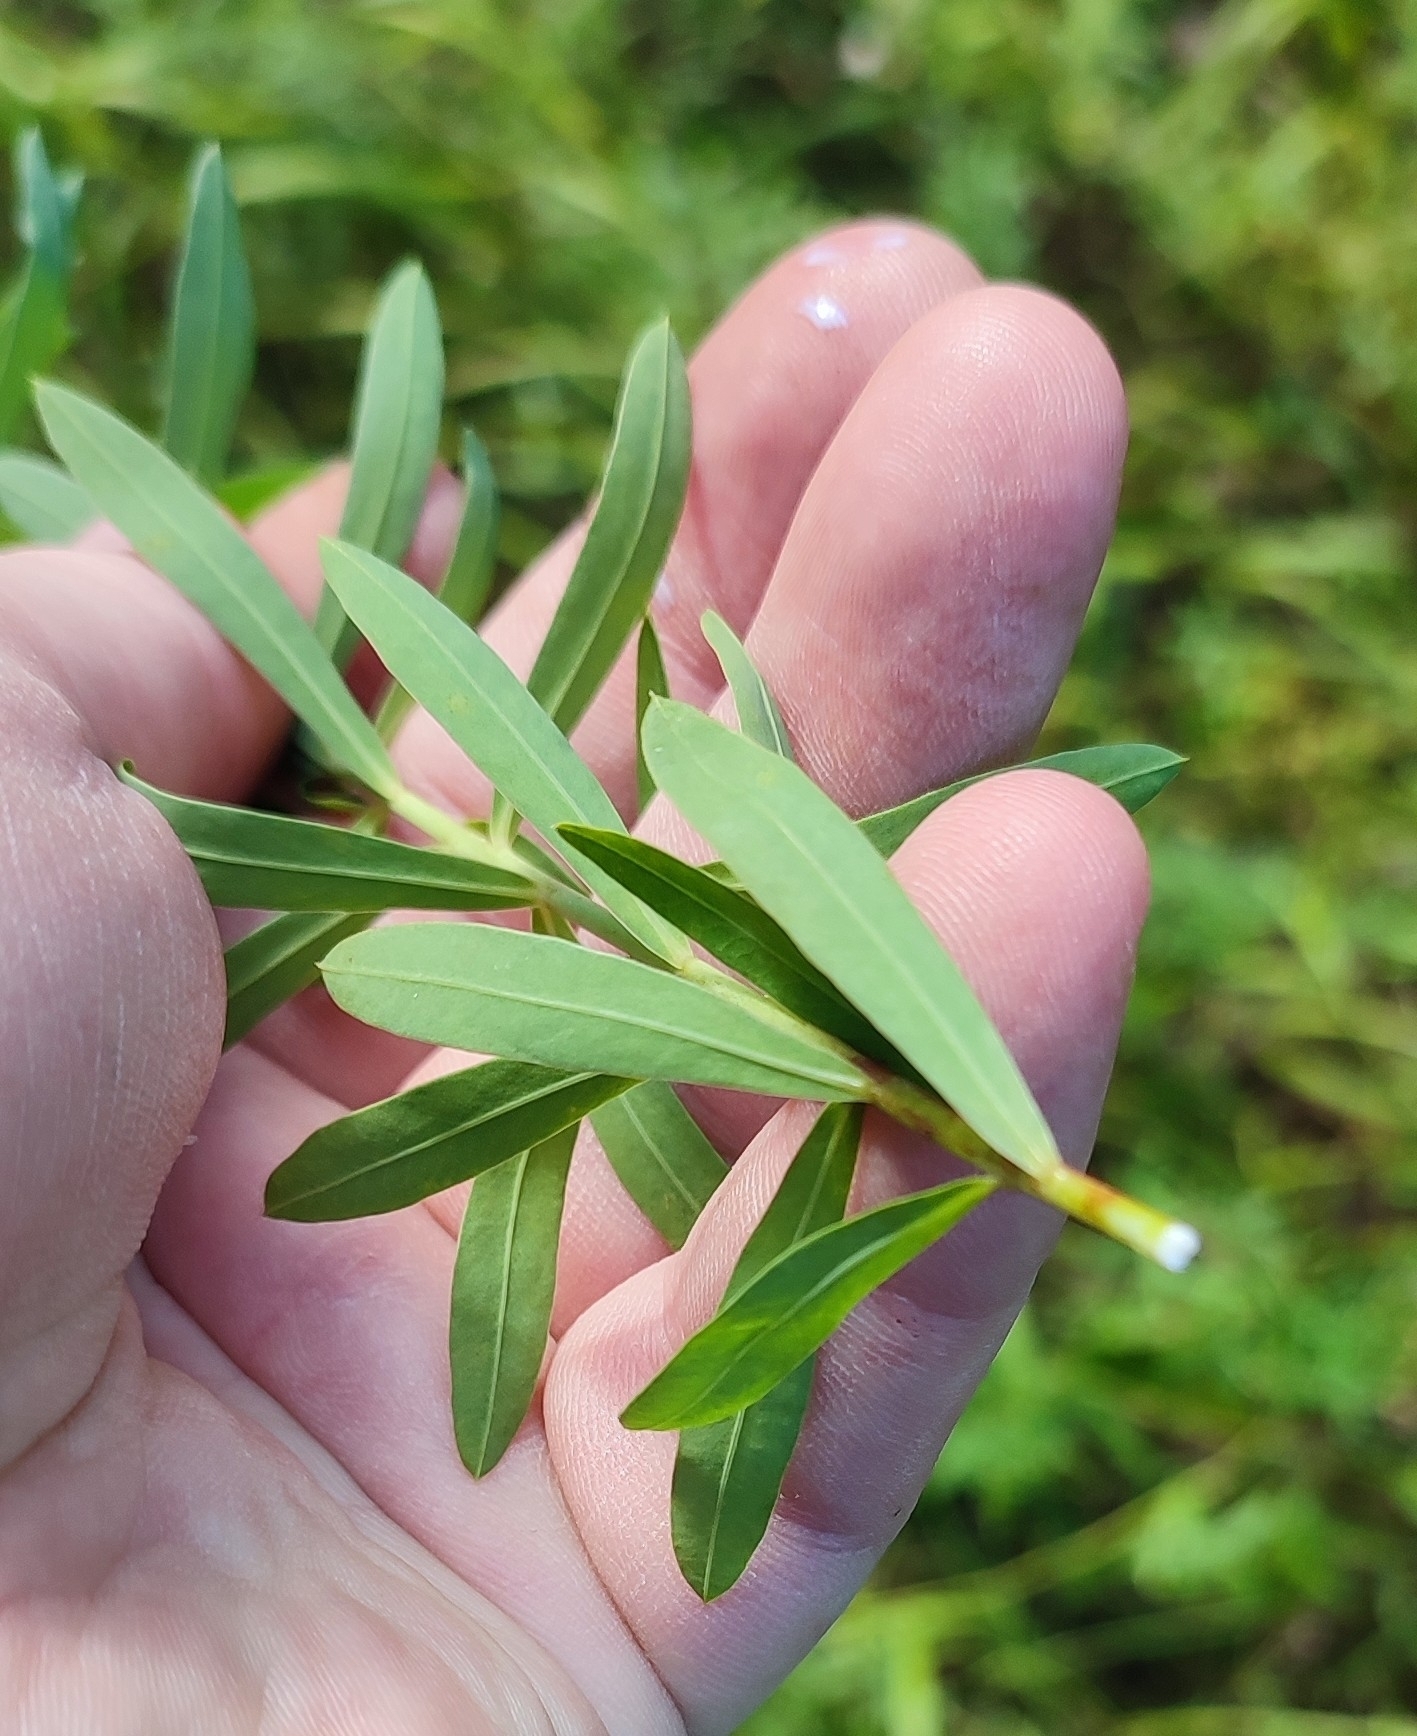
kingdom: Plantae
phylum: Tracheophyta
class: Magnoliopsida
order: Malpighiales
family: Euphorbiaceae
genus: Euphorbia
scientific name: Euphorbia virgata
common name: Leafy spurge
